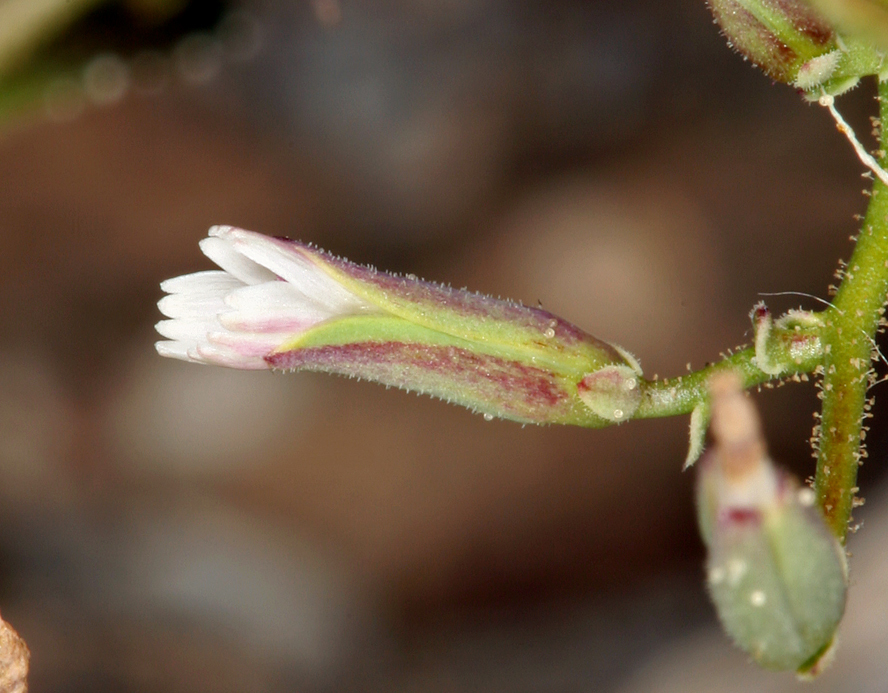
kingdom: Plantae
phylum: Tracheophyta
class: Magnoliopsida
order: Asterales
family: Asteraceae
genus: Lygodesmia
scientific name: Lygodesmia exigua
